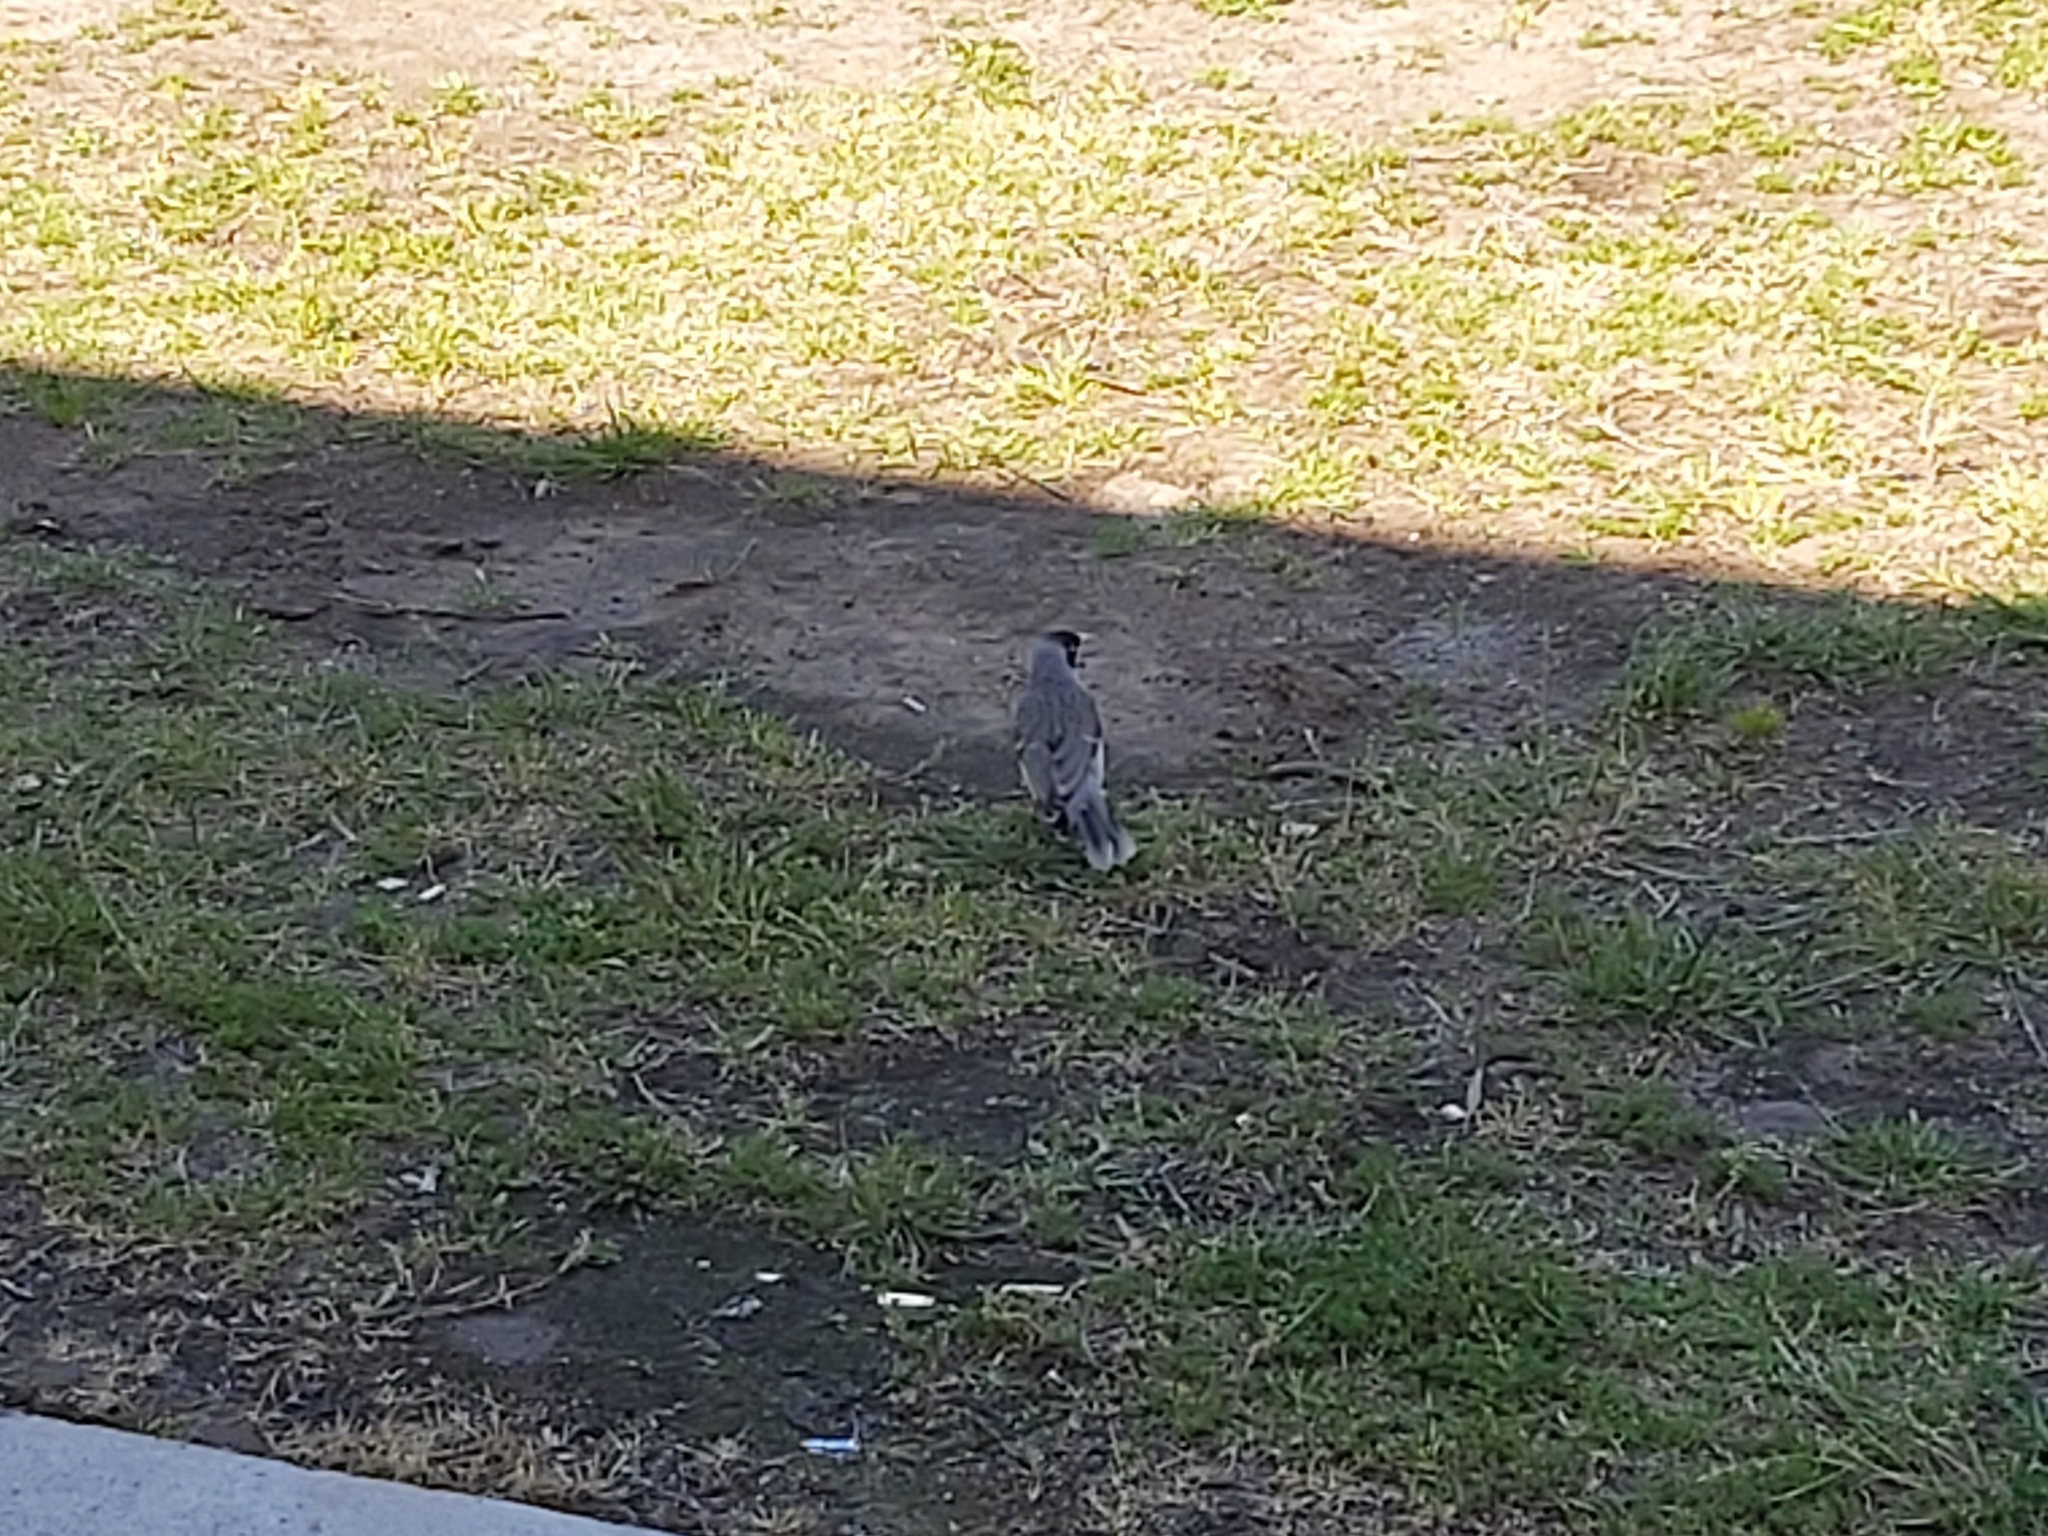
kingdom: Animalia
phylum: Chordata
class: Aves
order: Passeriformes
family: Meliphagidae
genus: Manorina
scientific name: Manorina melanocephala
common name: Noisy miner
